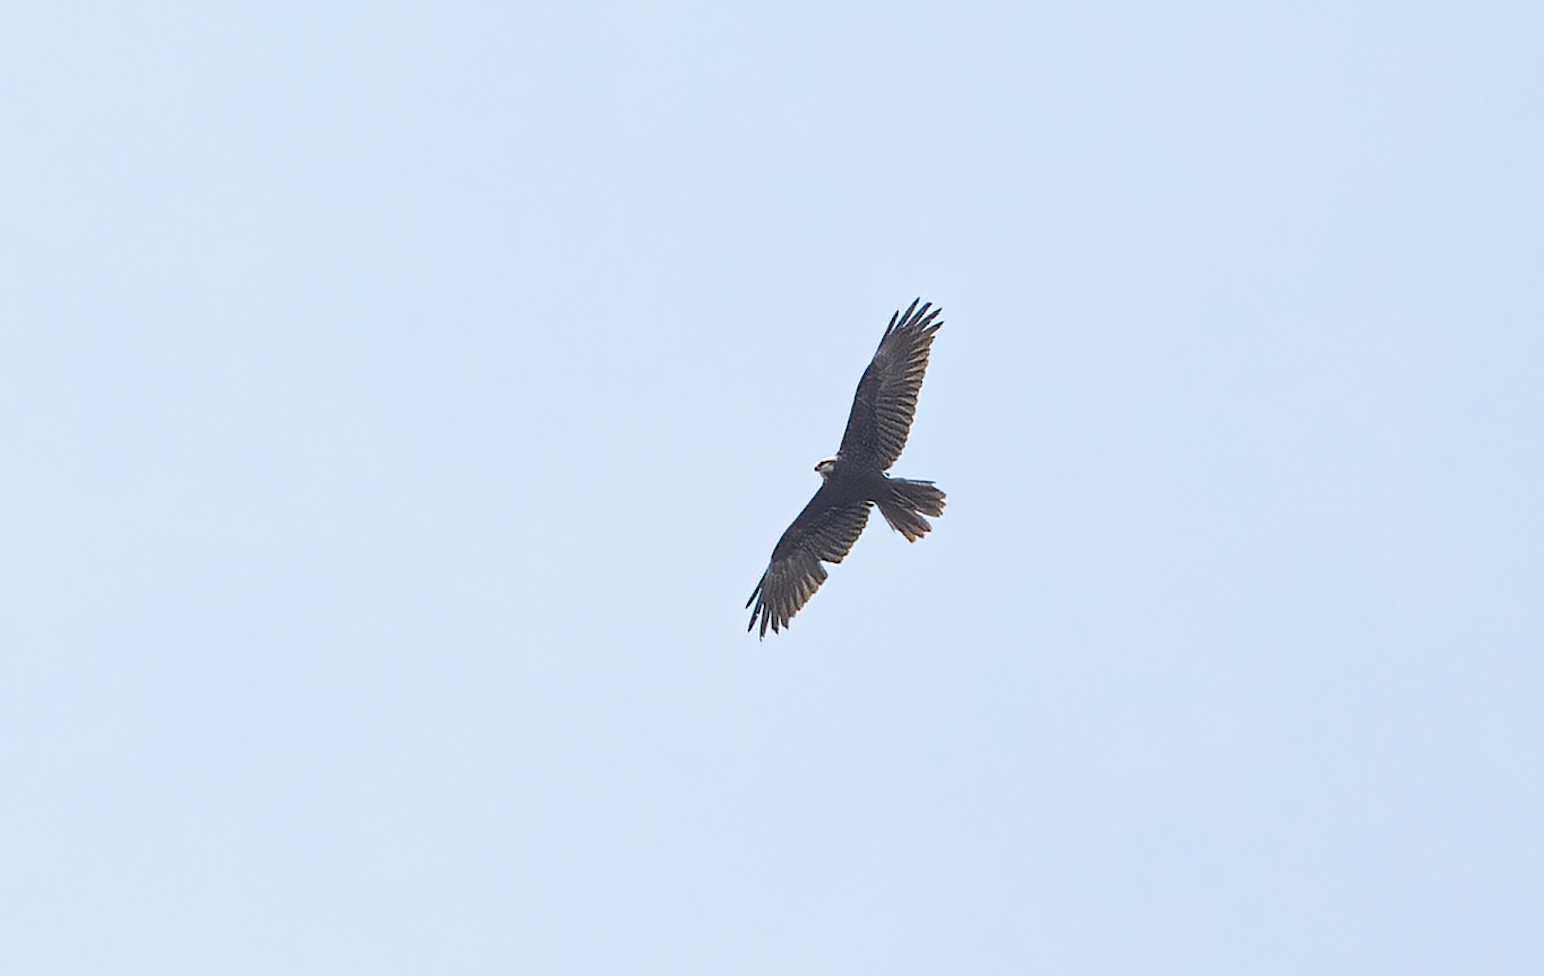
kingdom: Animalia
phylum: Chordata
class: Aves
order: Accipitriformes
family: Accipitridae
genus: Circus
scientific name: Circus aeruginosus
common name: Western marsh harrier
